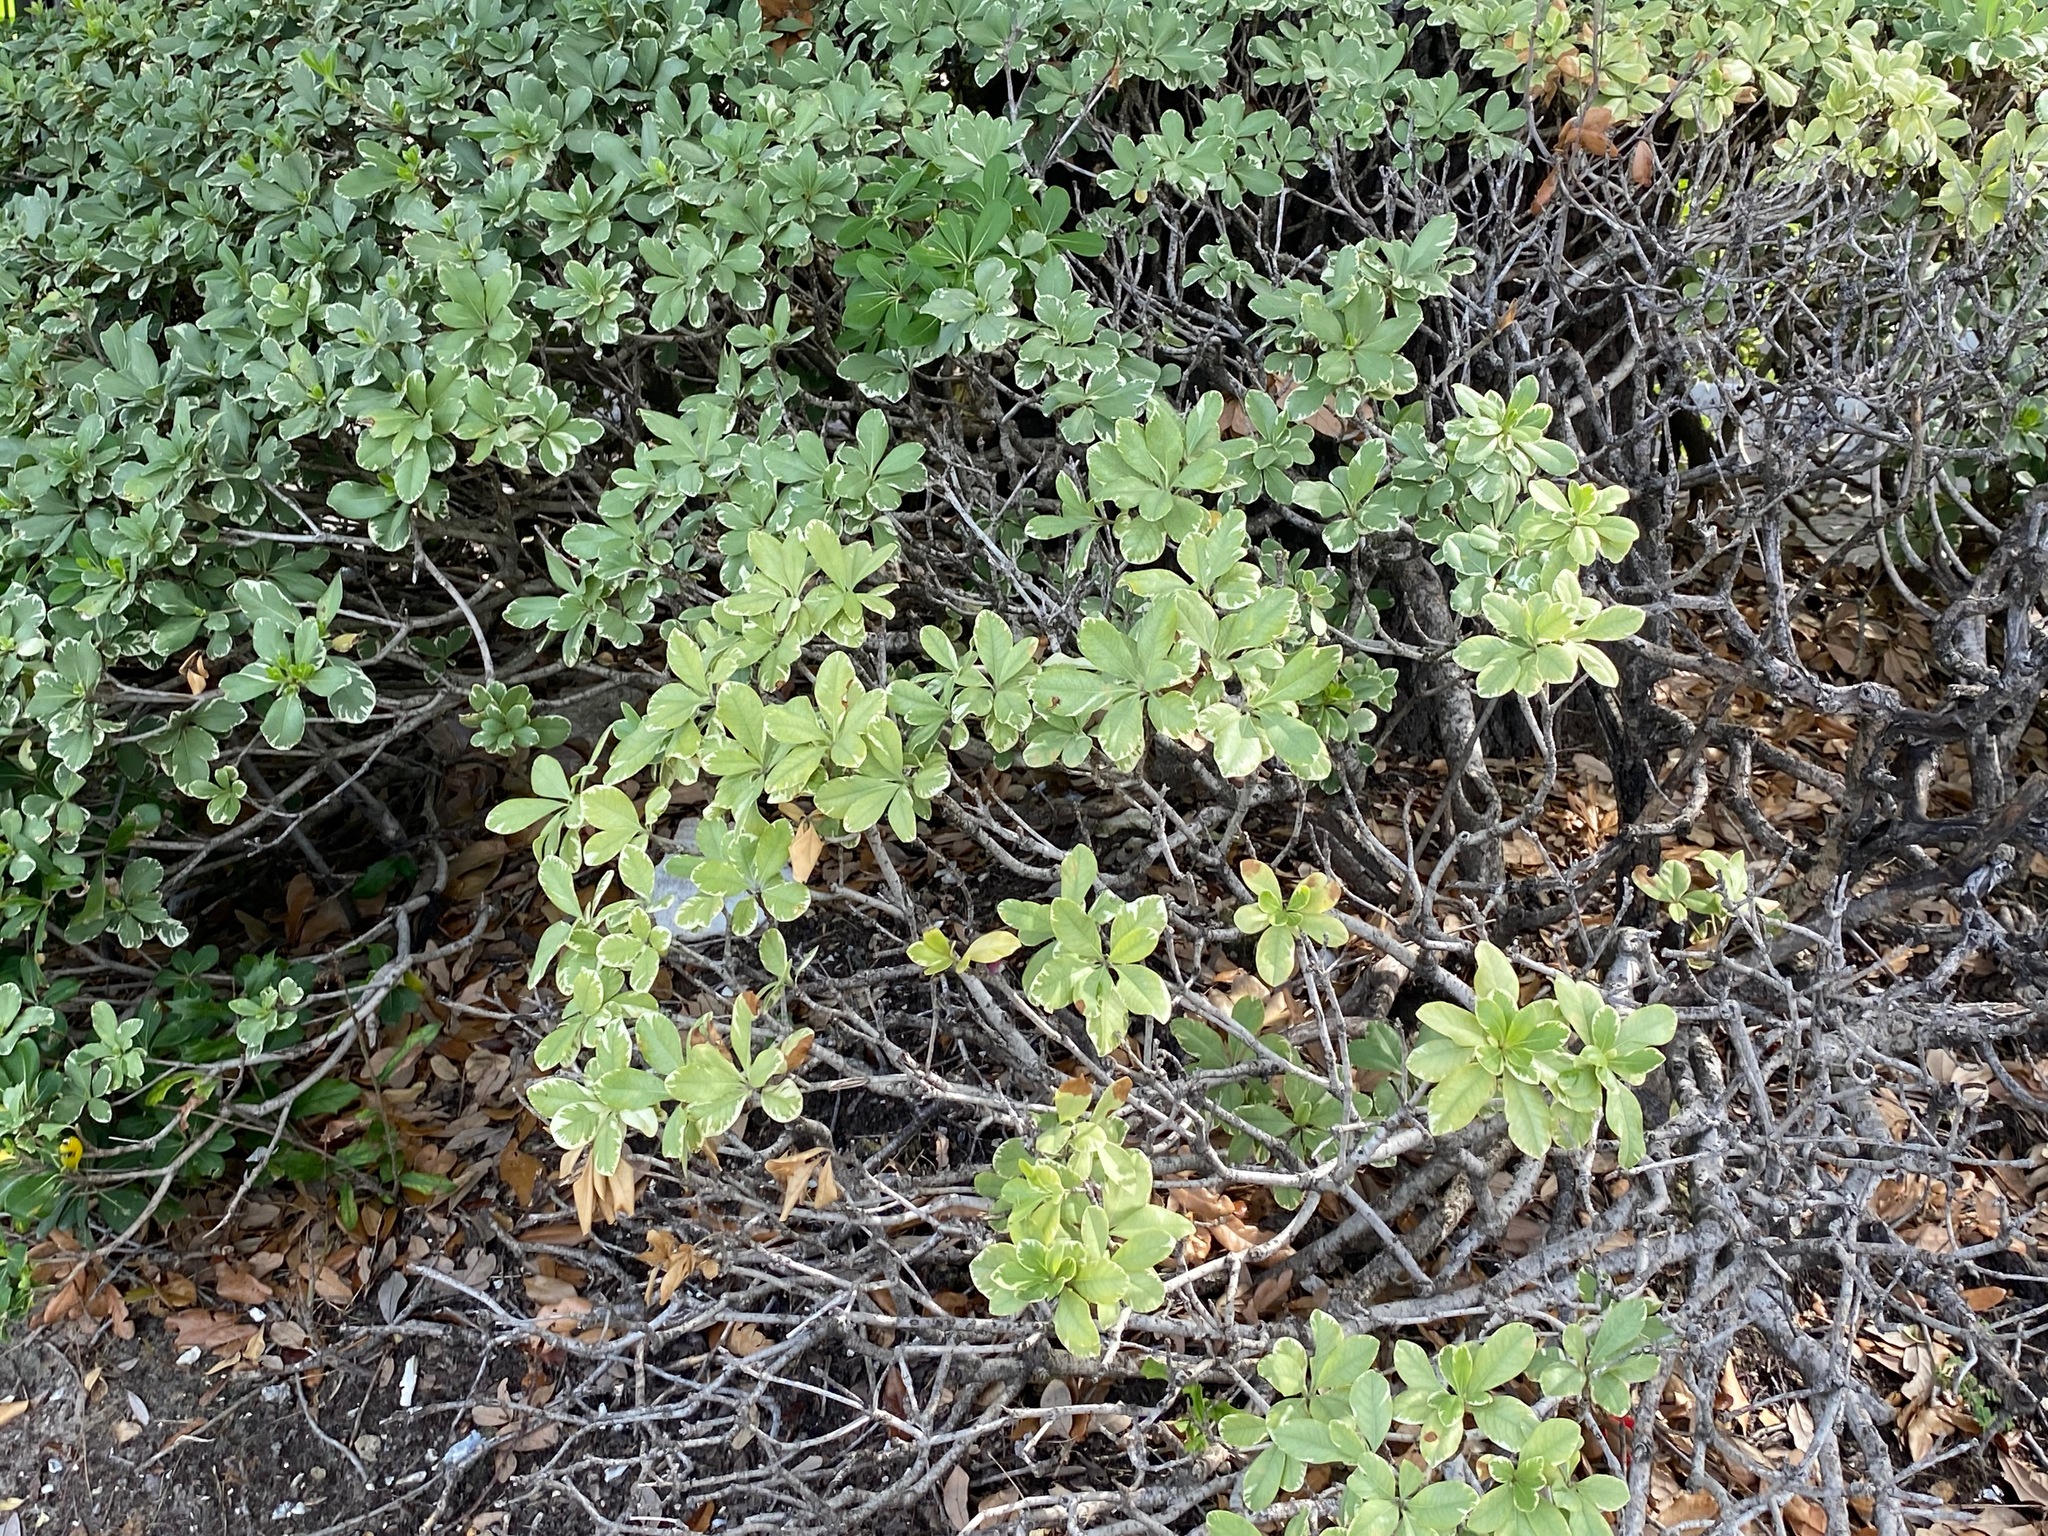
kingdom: Plantae
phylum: Tracheophyta
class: Magnoliopsida
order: Apiales
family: Pittosporaceae
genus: Pittosporum
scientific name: Pittosporum tobira
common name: Japanese cheesewood
